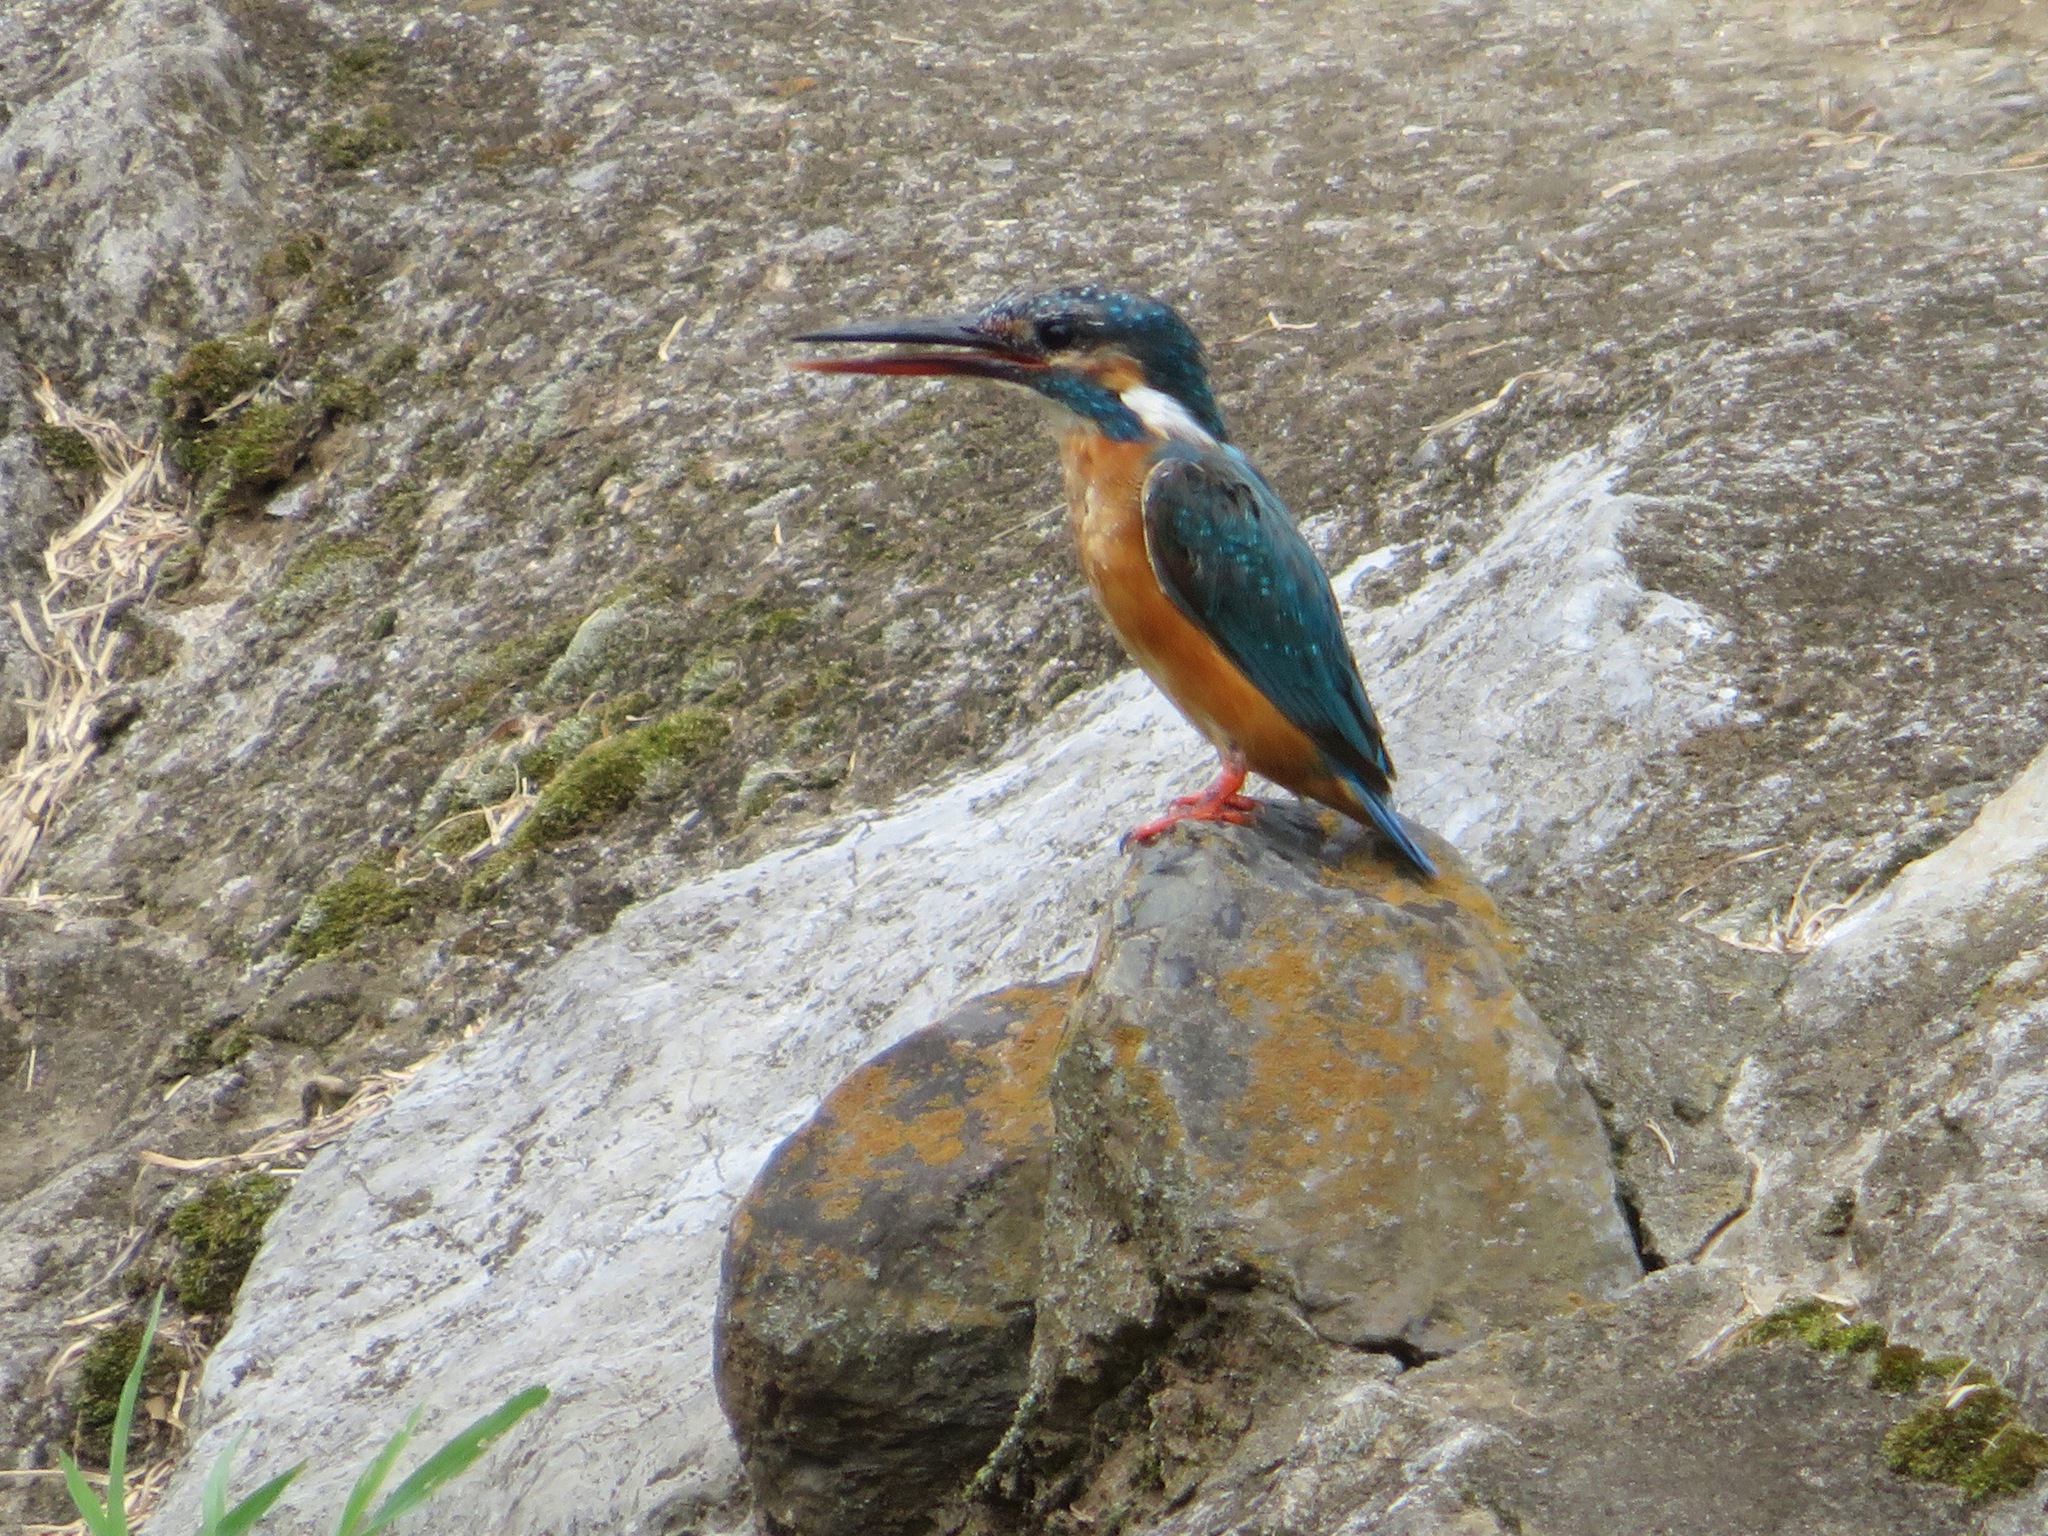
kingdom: Animalia
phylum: Chordata
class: Aves
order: Coraciiformes
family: Alcedinidae
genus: Alcedo
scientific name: Alcedo atthis
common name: Common kingfisher
